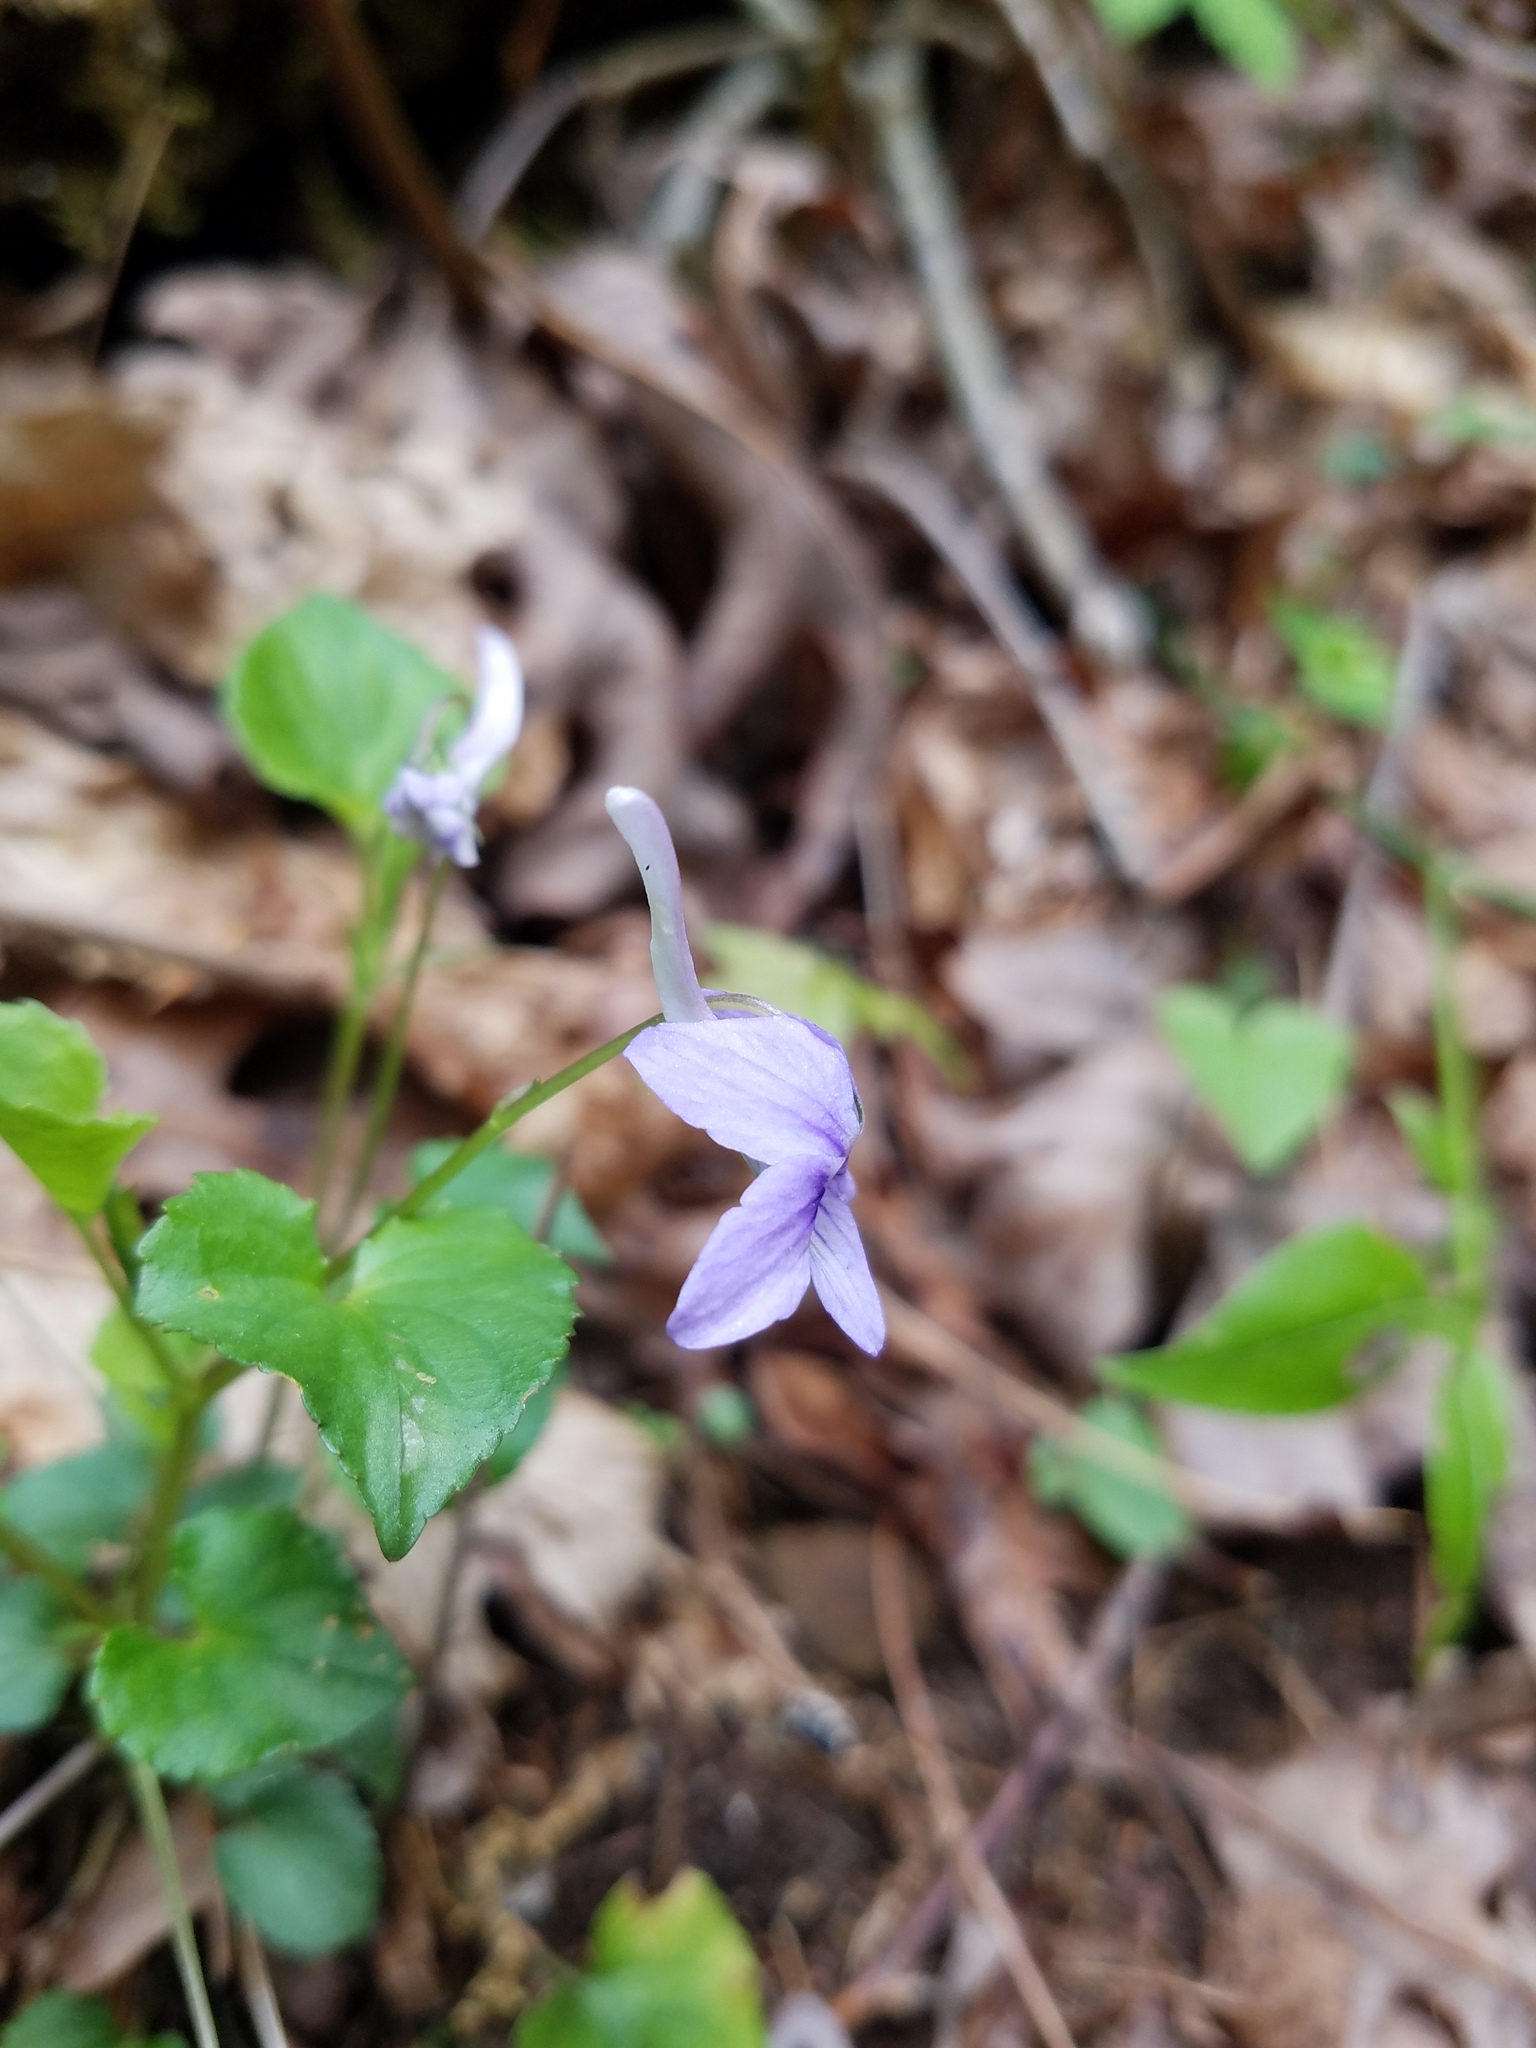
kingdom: Plantae
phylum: Tracheophyta
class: Magnoliopsida
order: Malpighiales
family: Violaceae
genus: Viola
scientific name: Viola rostrata
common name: Long-spur violet
